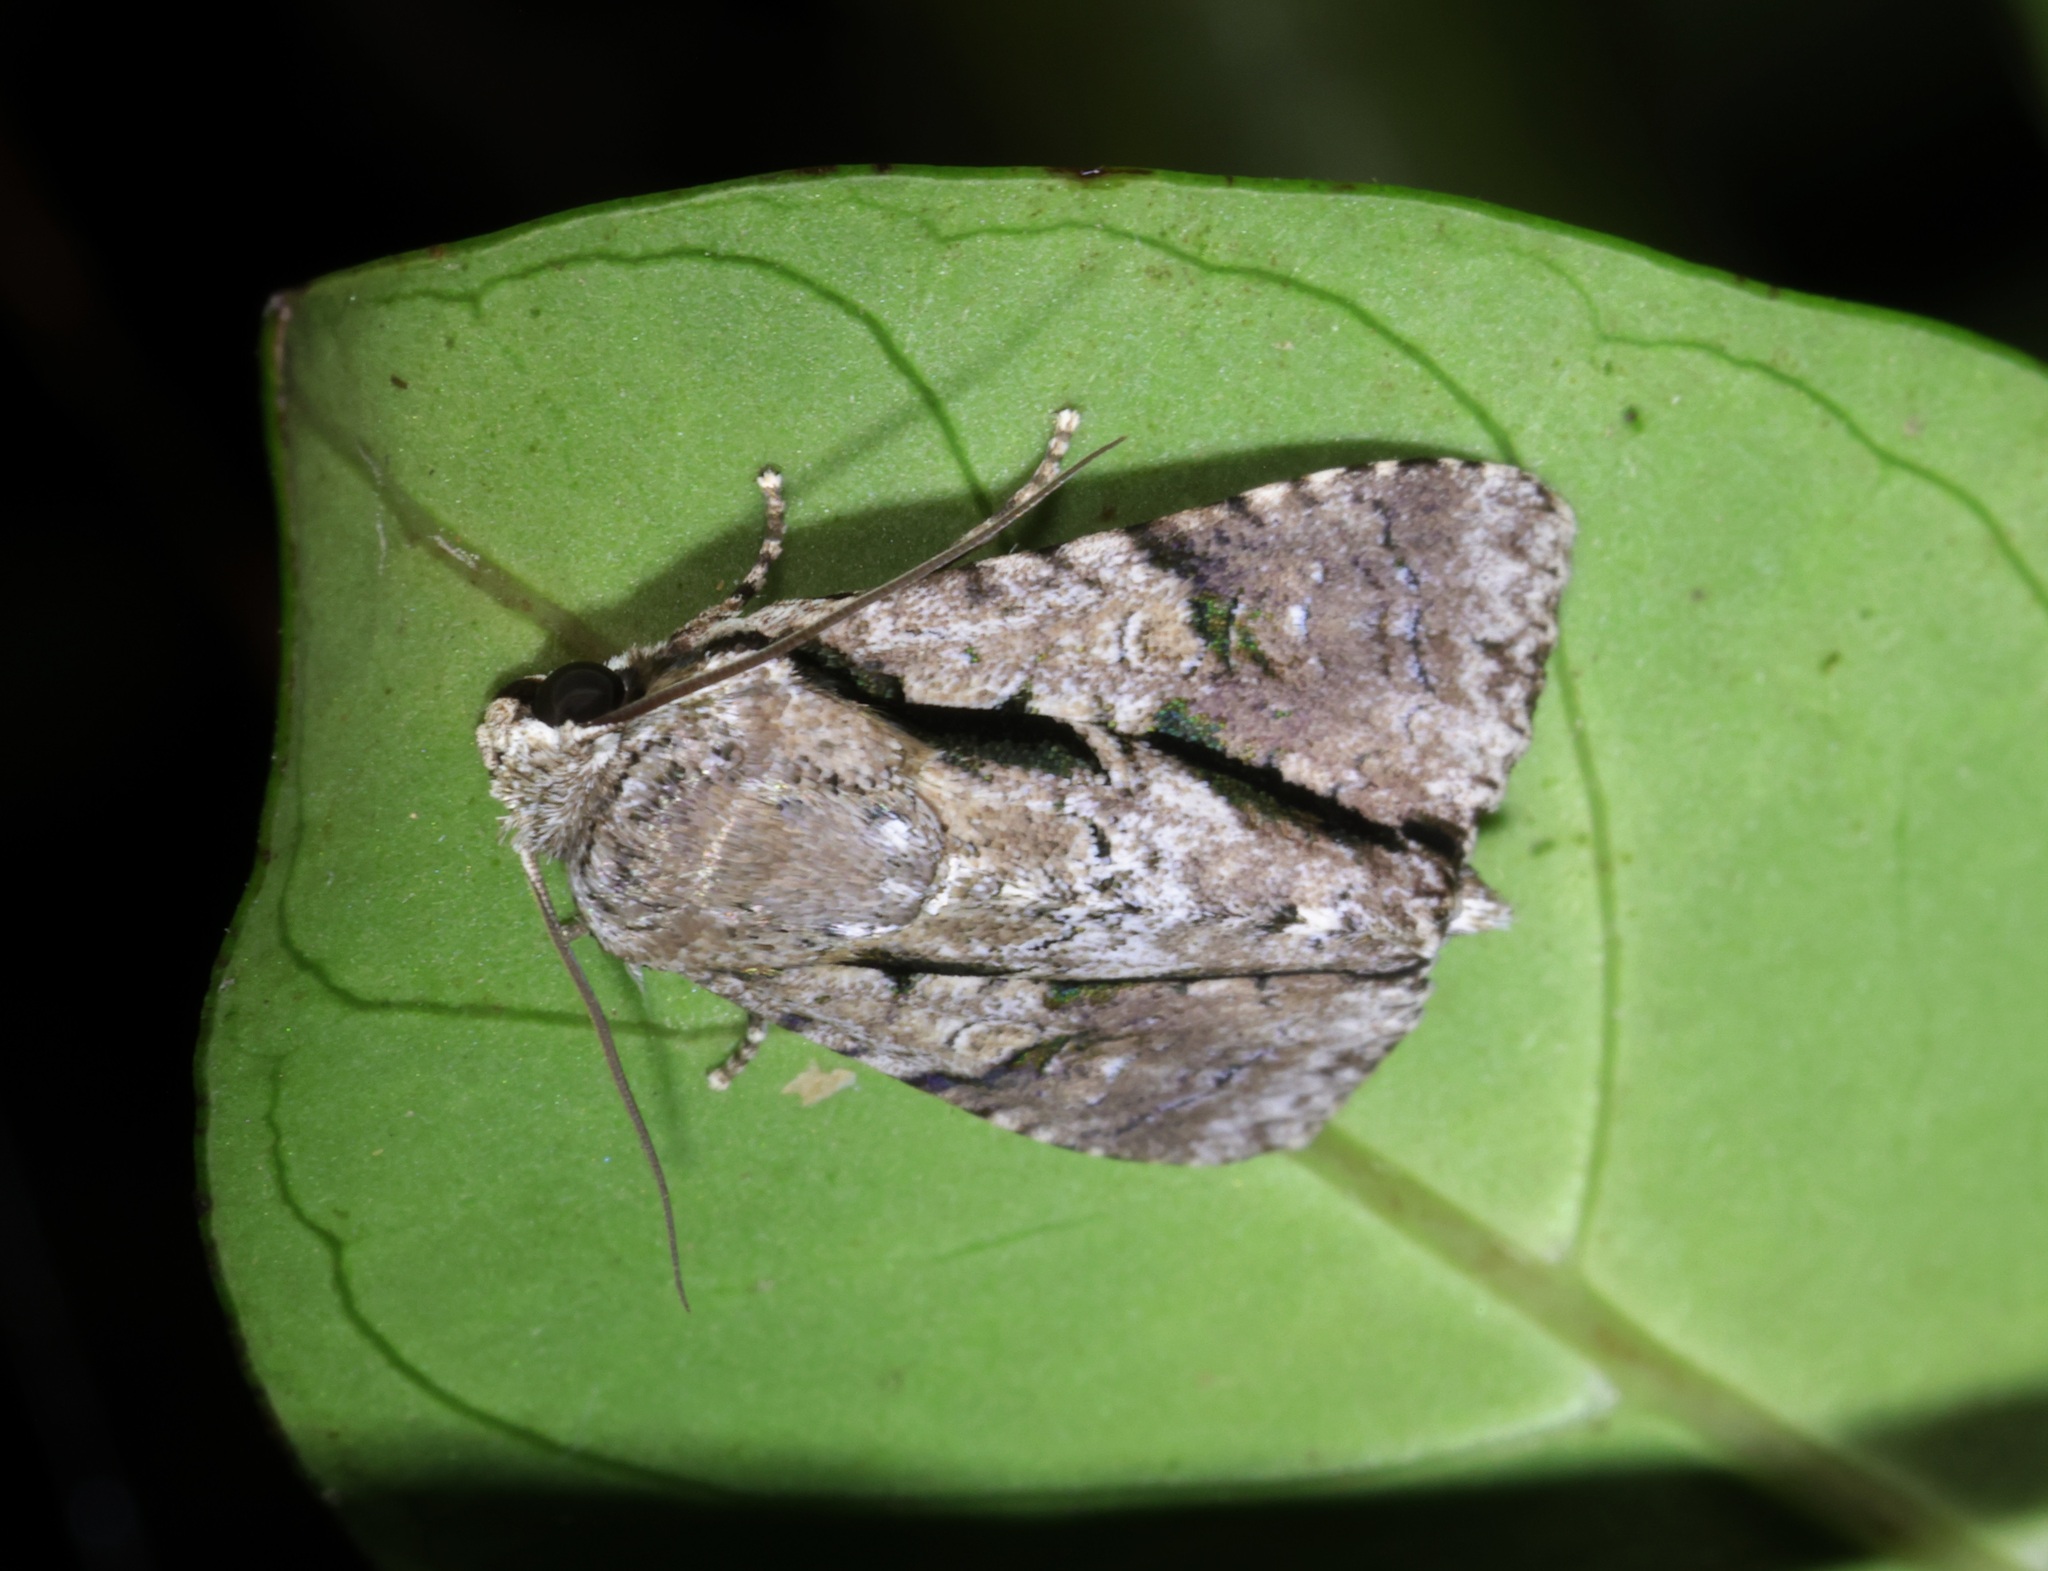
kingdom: Animalia
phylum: Arthropoda
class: Insecta
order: Lepidoptera
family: Noctuidae
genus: Fascionycta
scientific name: Fascionycta fasciata
